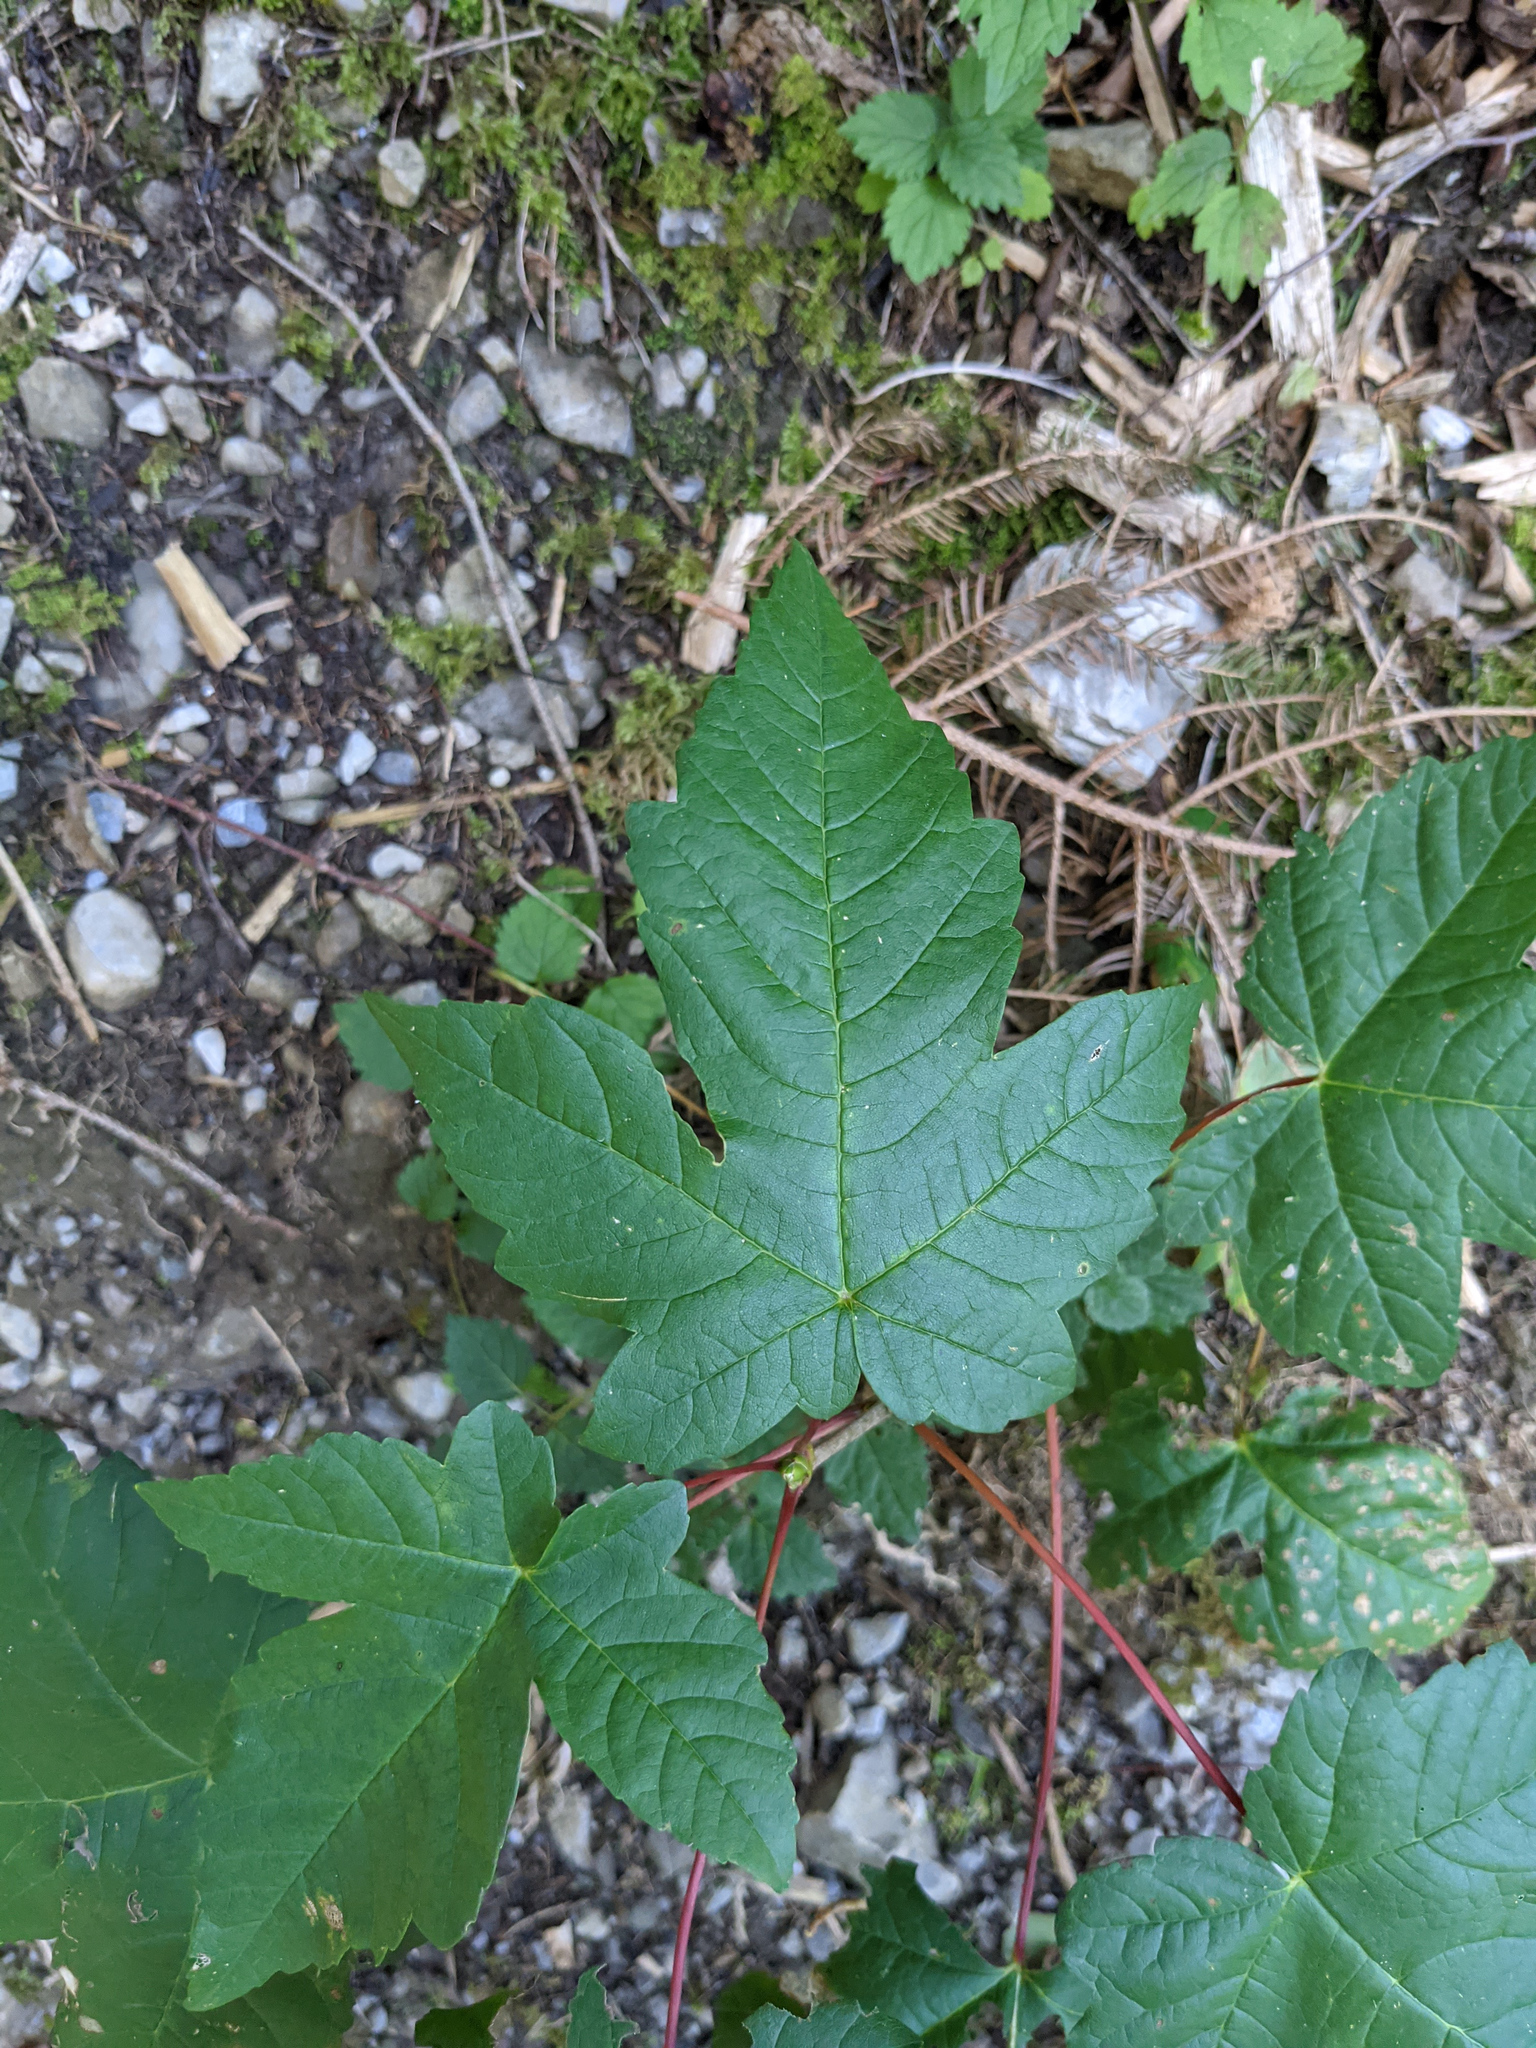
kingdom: Plantae
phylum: Tracheophyta
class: Magnoliopsida
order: Sapindales
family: Sapindaceae
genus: Acer
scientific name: Acer pseudoplatanus
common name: Sycamore
